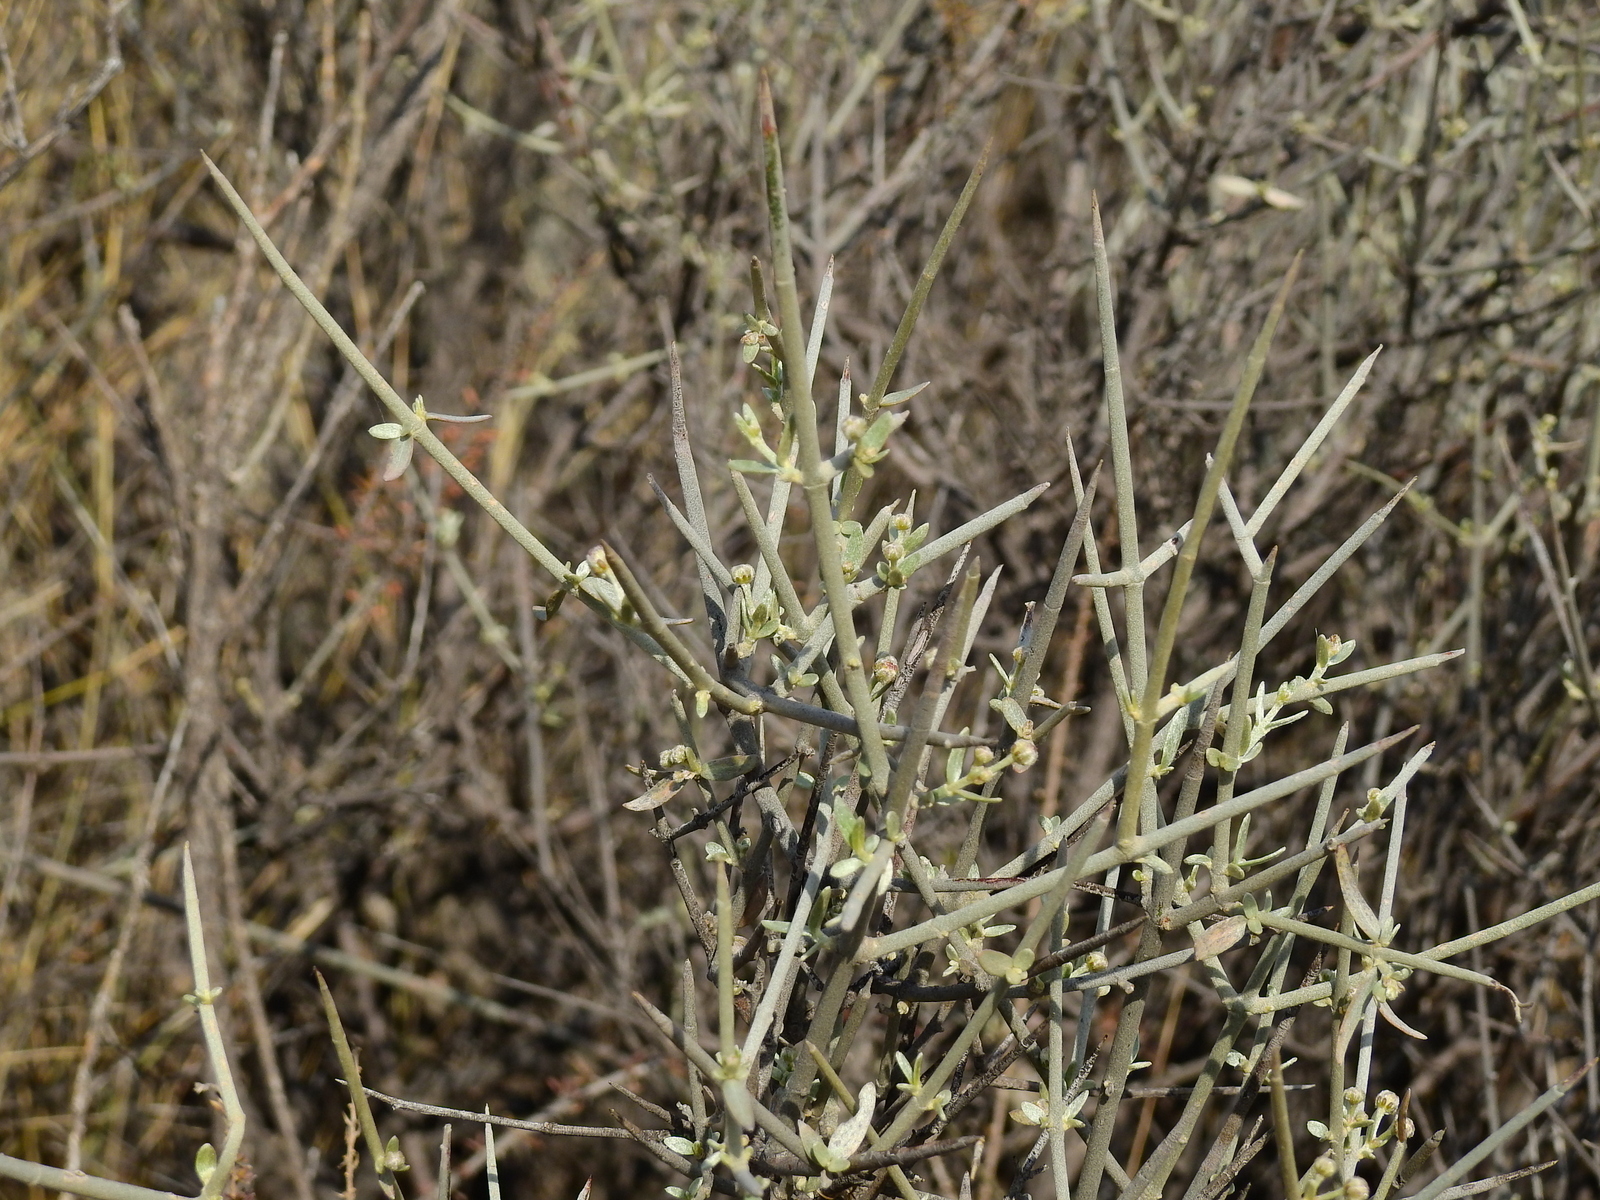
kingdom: Plantae
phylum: Tracheophyta
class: Magnoliopsida
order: Malpighiales
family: Malpighiaceae
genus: Tricomaria
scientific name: Tricomaria usillo
